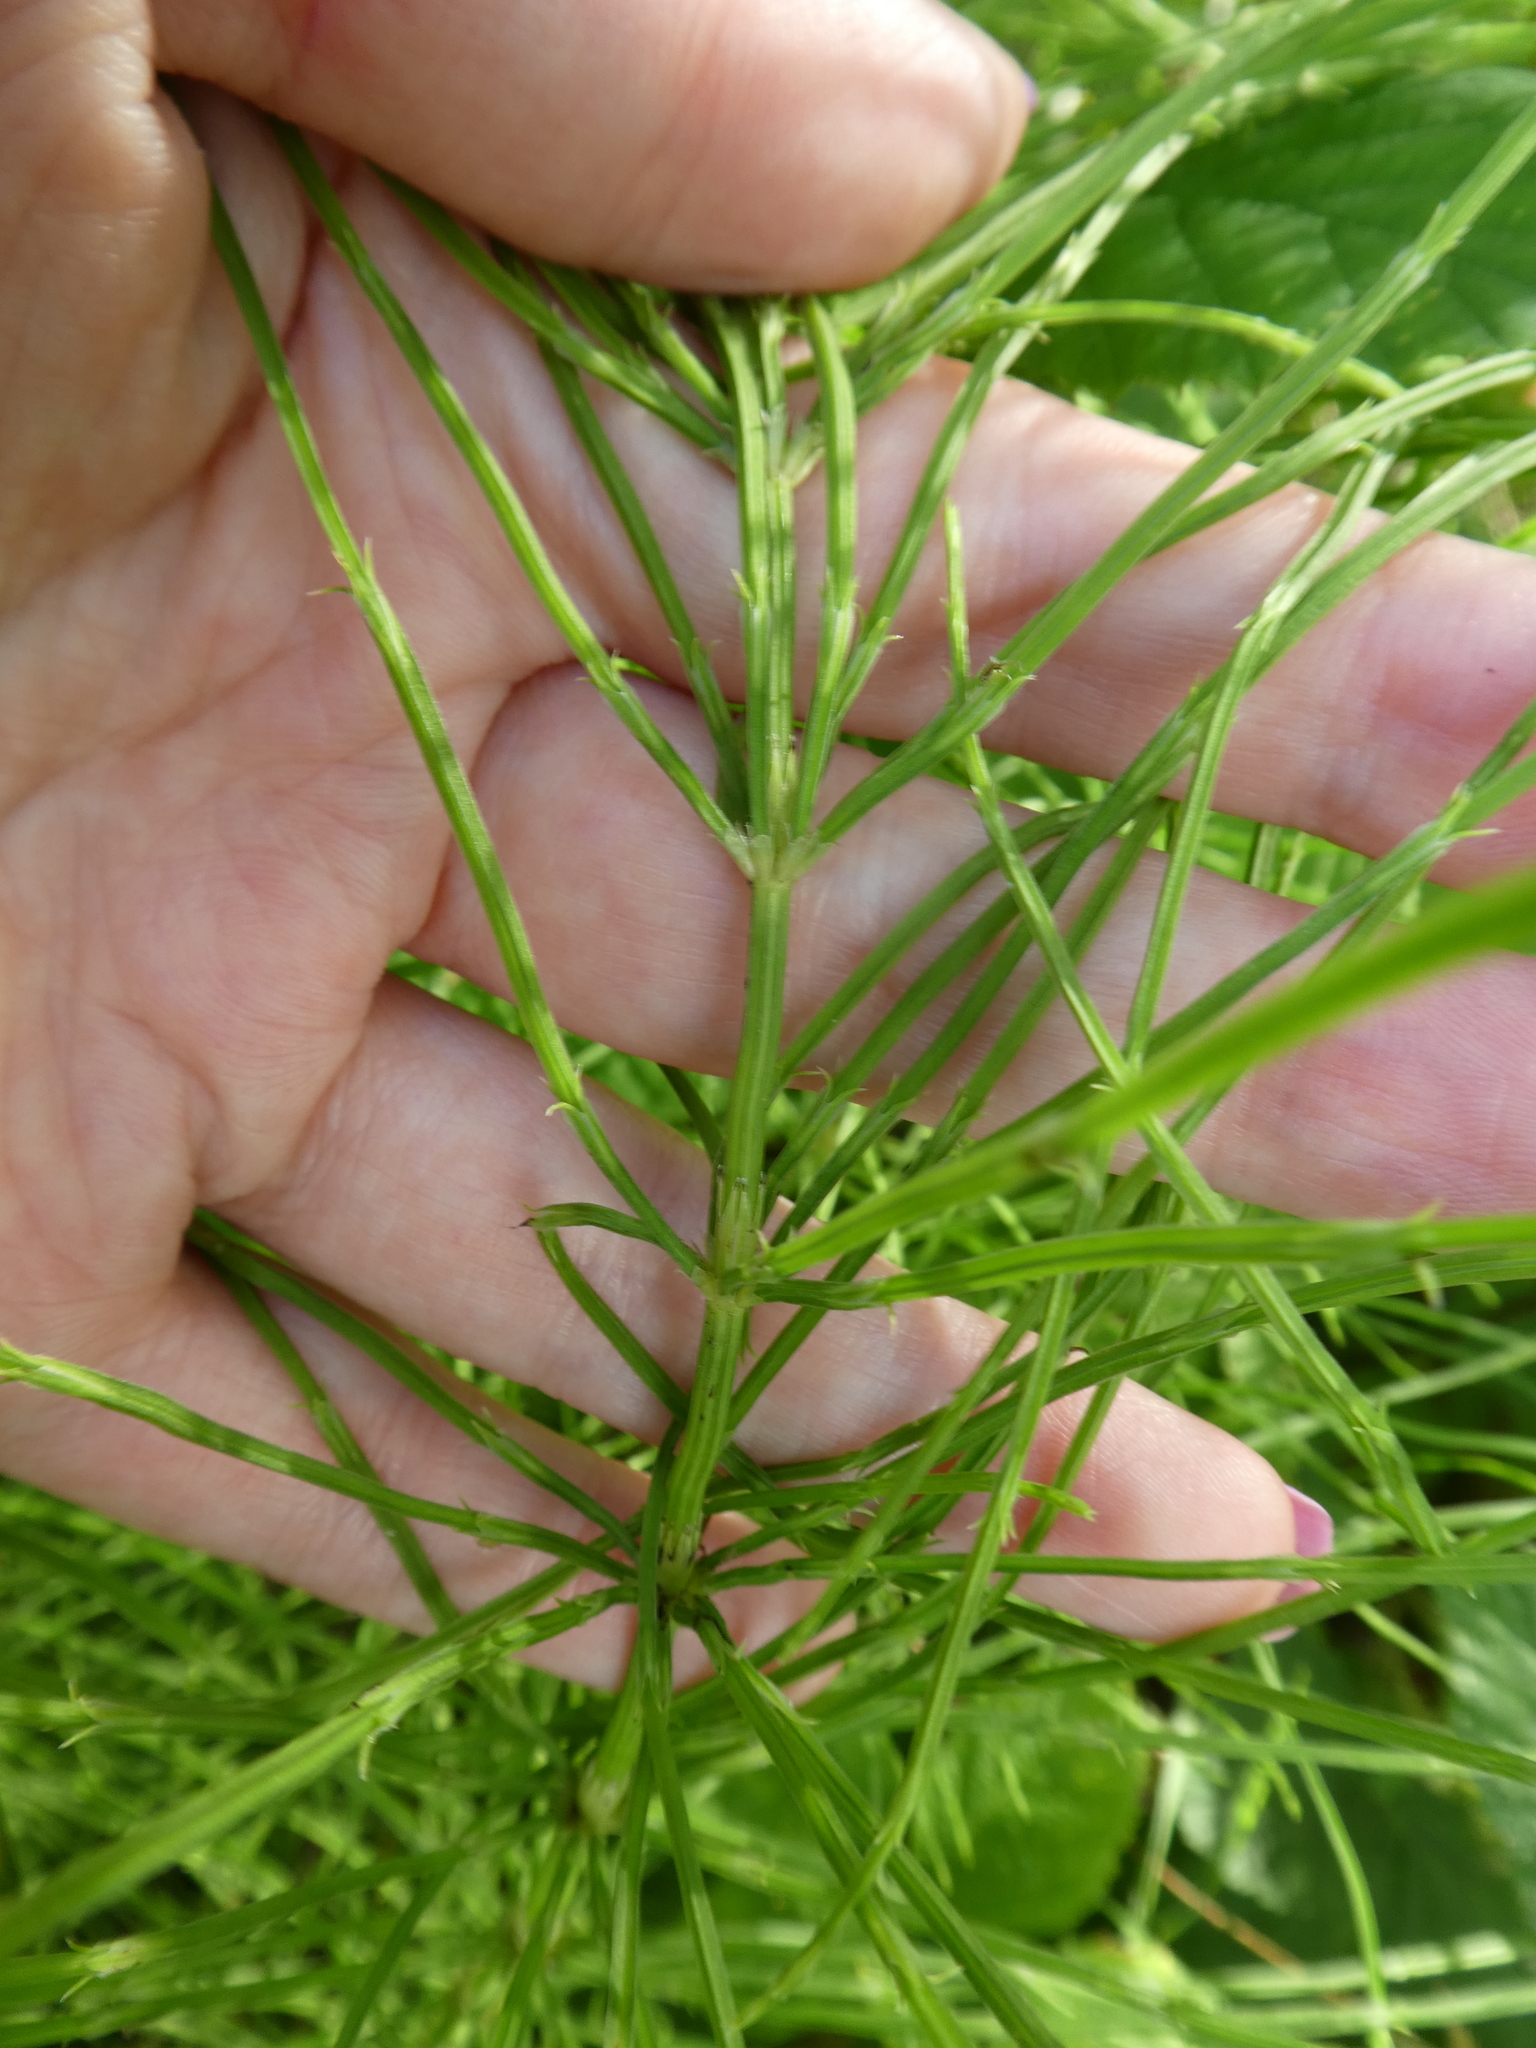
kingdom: Plantae
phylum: Tracheophyta
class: Polypodiopsida
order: Equisetales
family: Equisetaceae
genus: Equisetum
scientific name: Equisetum arvense
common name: Field horsetail
